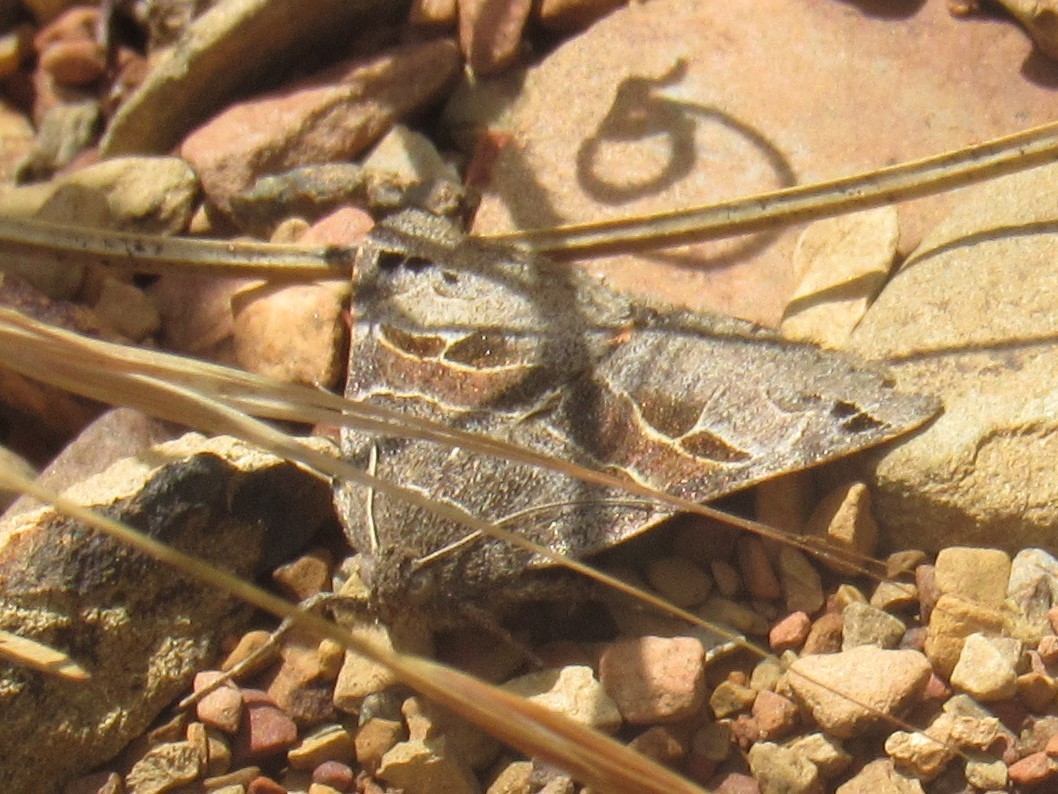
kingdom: Animalia
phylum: Arthropoda
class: Insecta
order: Lepidoptera
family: Erebidae
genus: Drasteria
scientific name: Drasteria edwardsii
